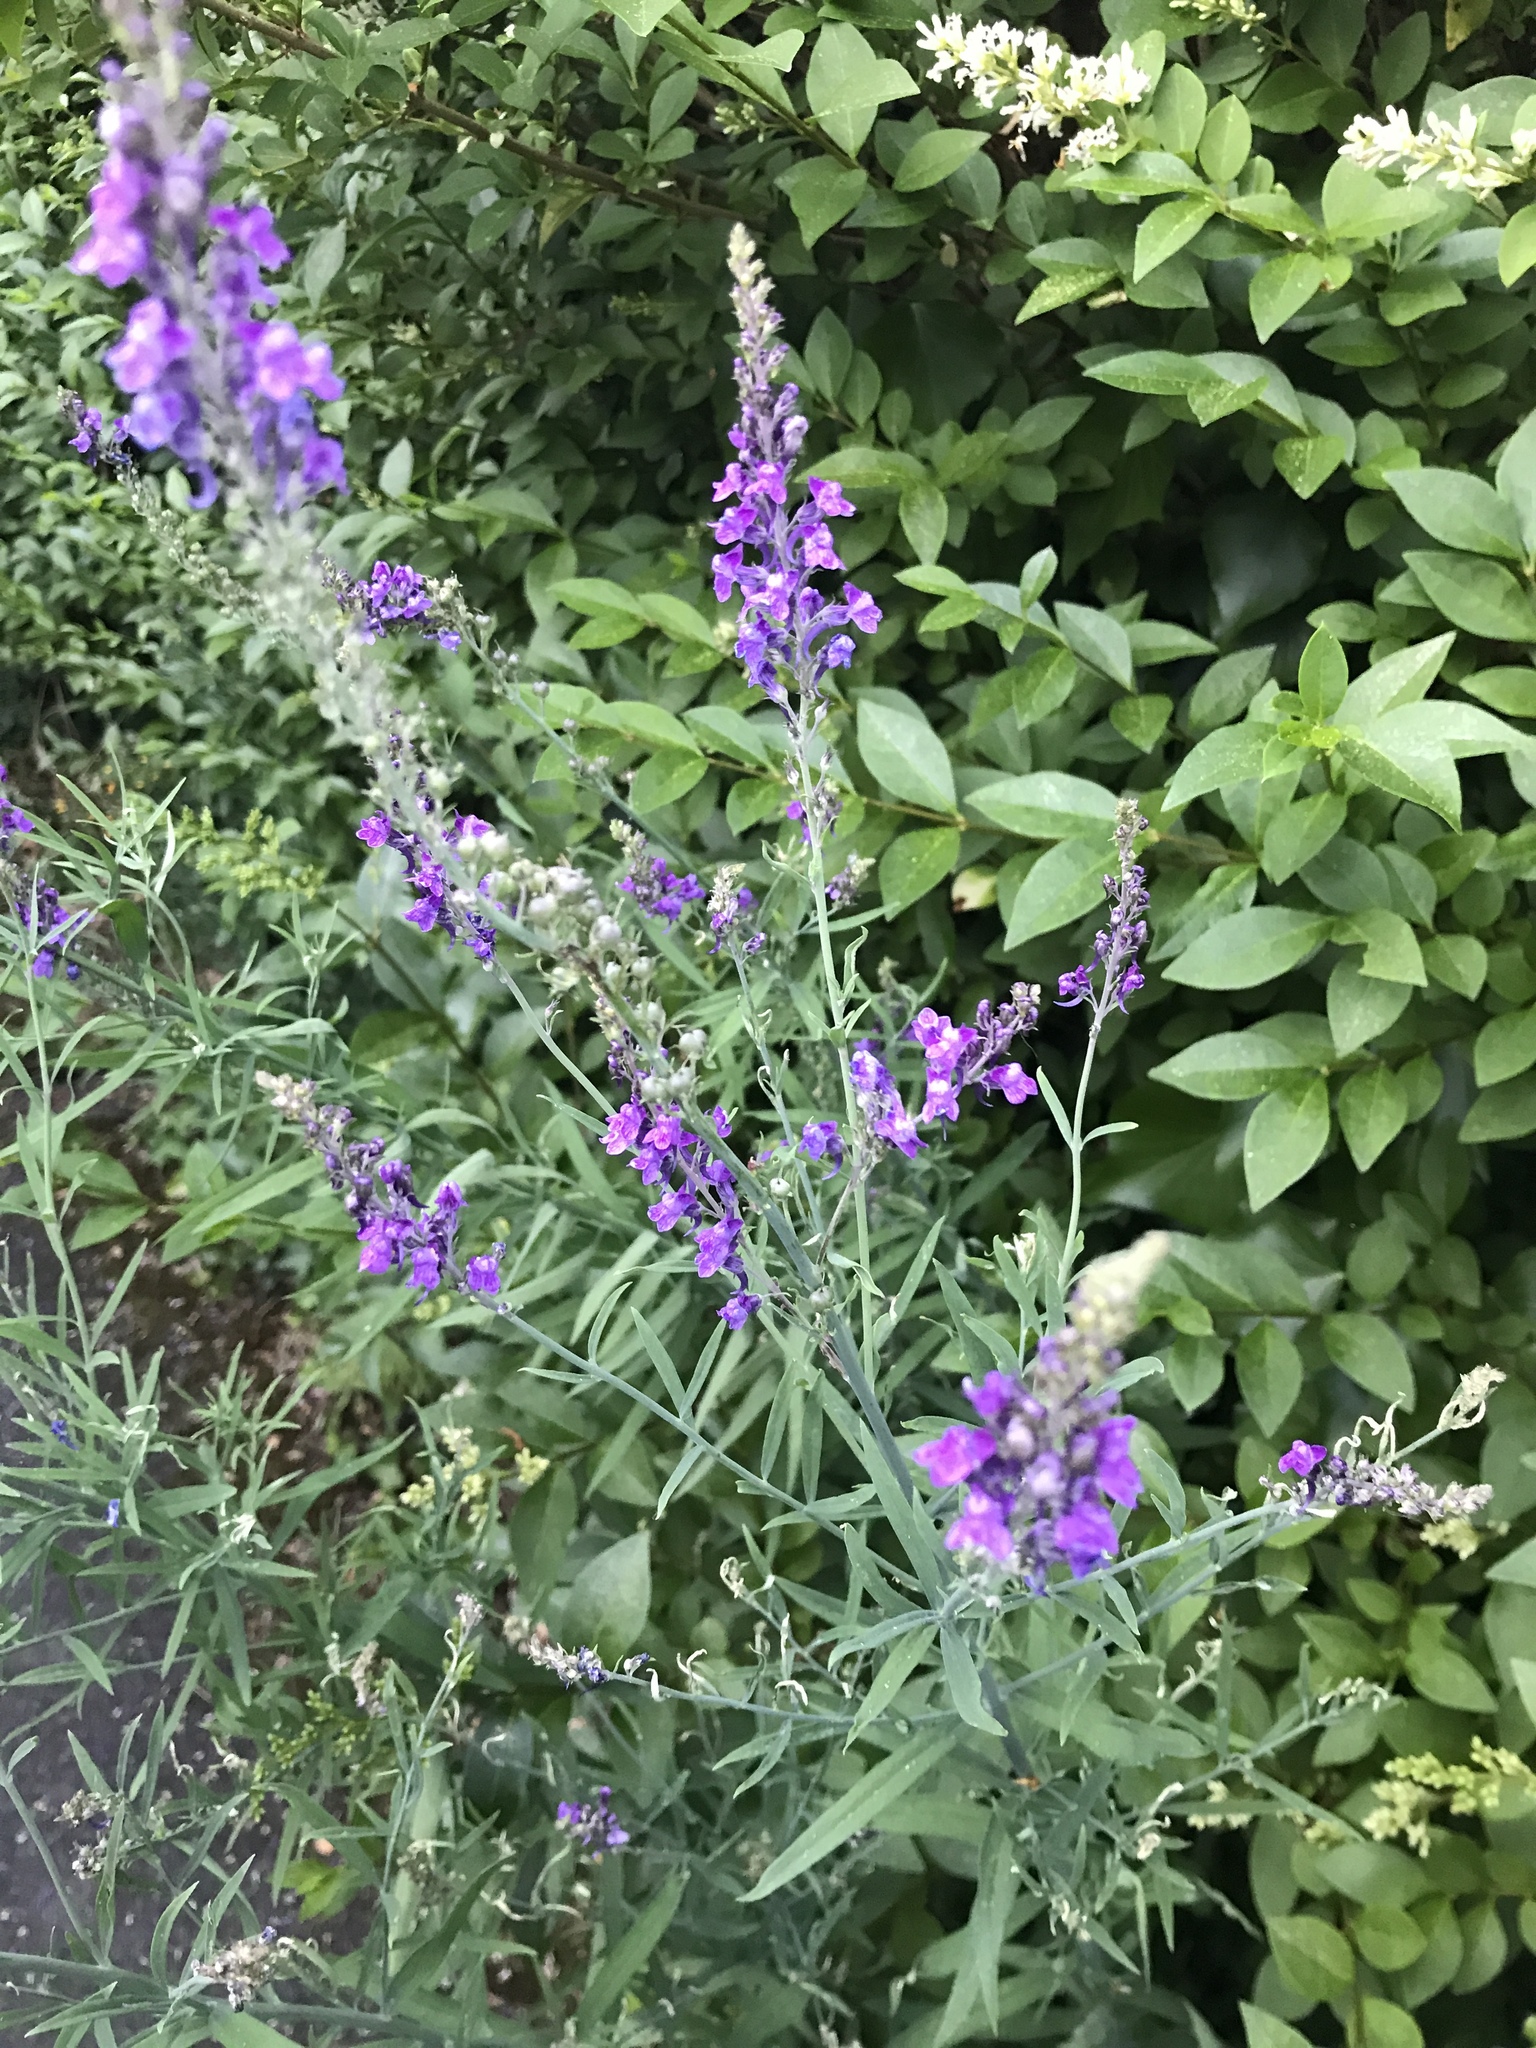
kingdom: Plantae
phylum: Tracheophyta
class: Magnoliopsida
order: Lamiales
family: Plantaginaceae
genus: Linaria
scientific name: Linaria purpurea
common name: Purple toadflax
